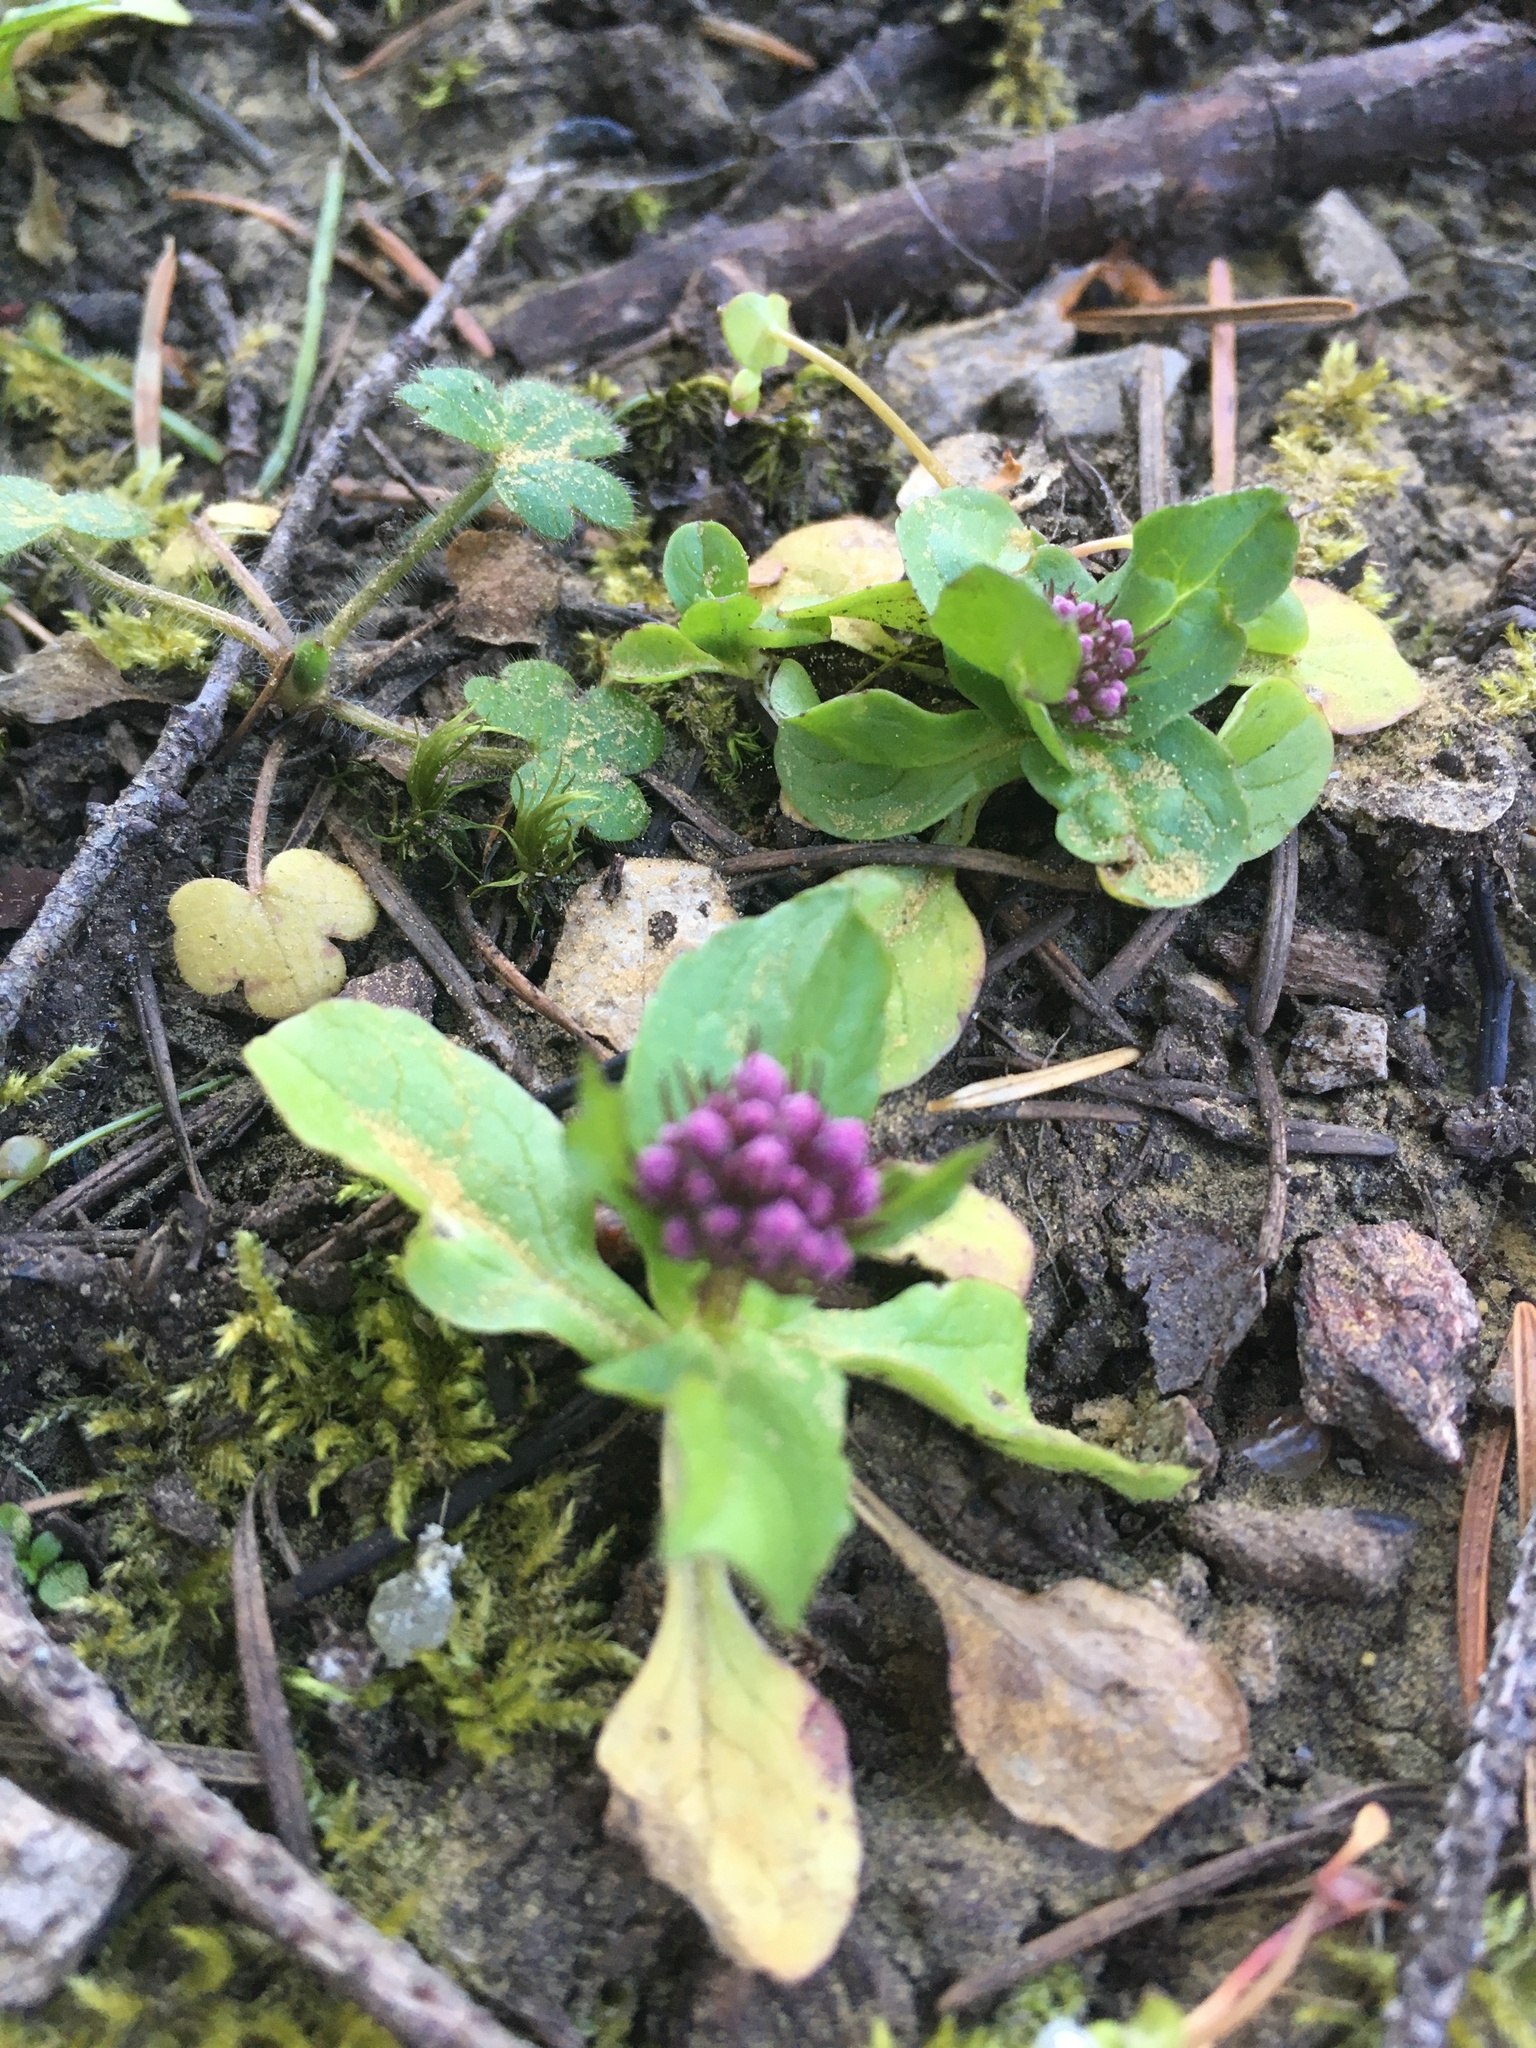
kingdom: Plantae
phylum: Tracheophyta
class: Magnoliopsida
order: Dipsacales
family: Caprifoliaceae
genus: Plectritis
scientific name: Plectritis congesta
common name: Pink plectritis
